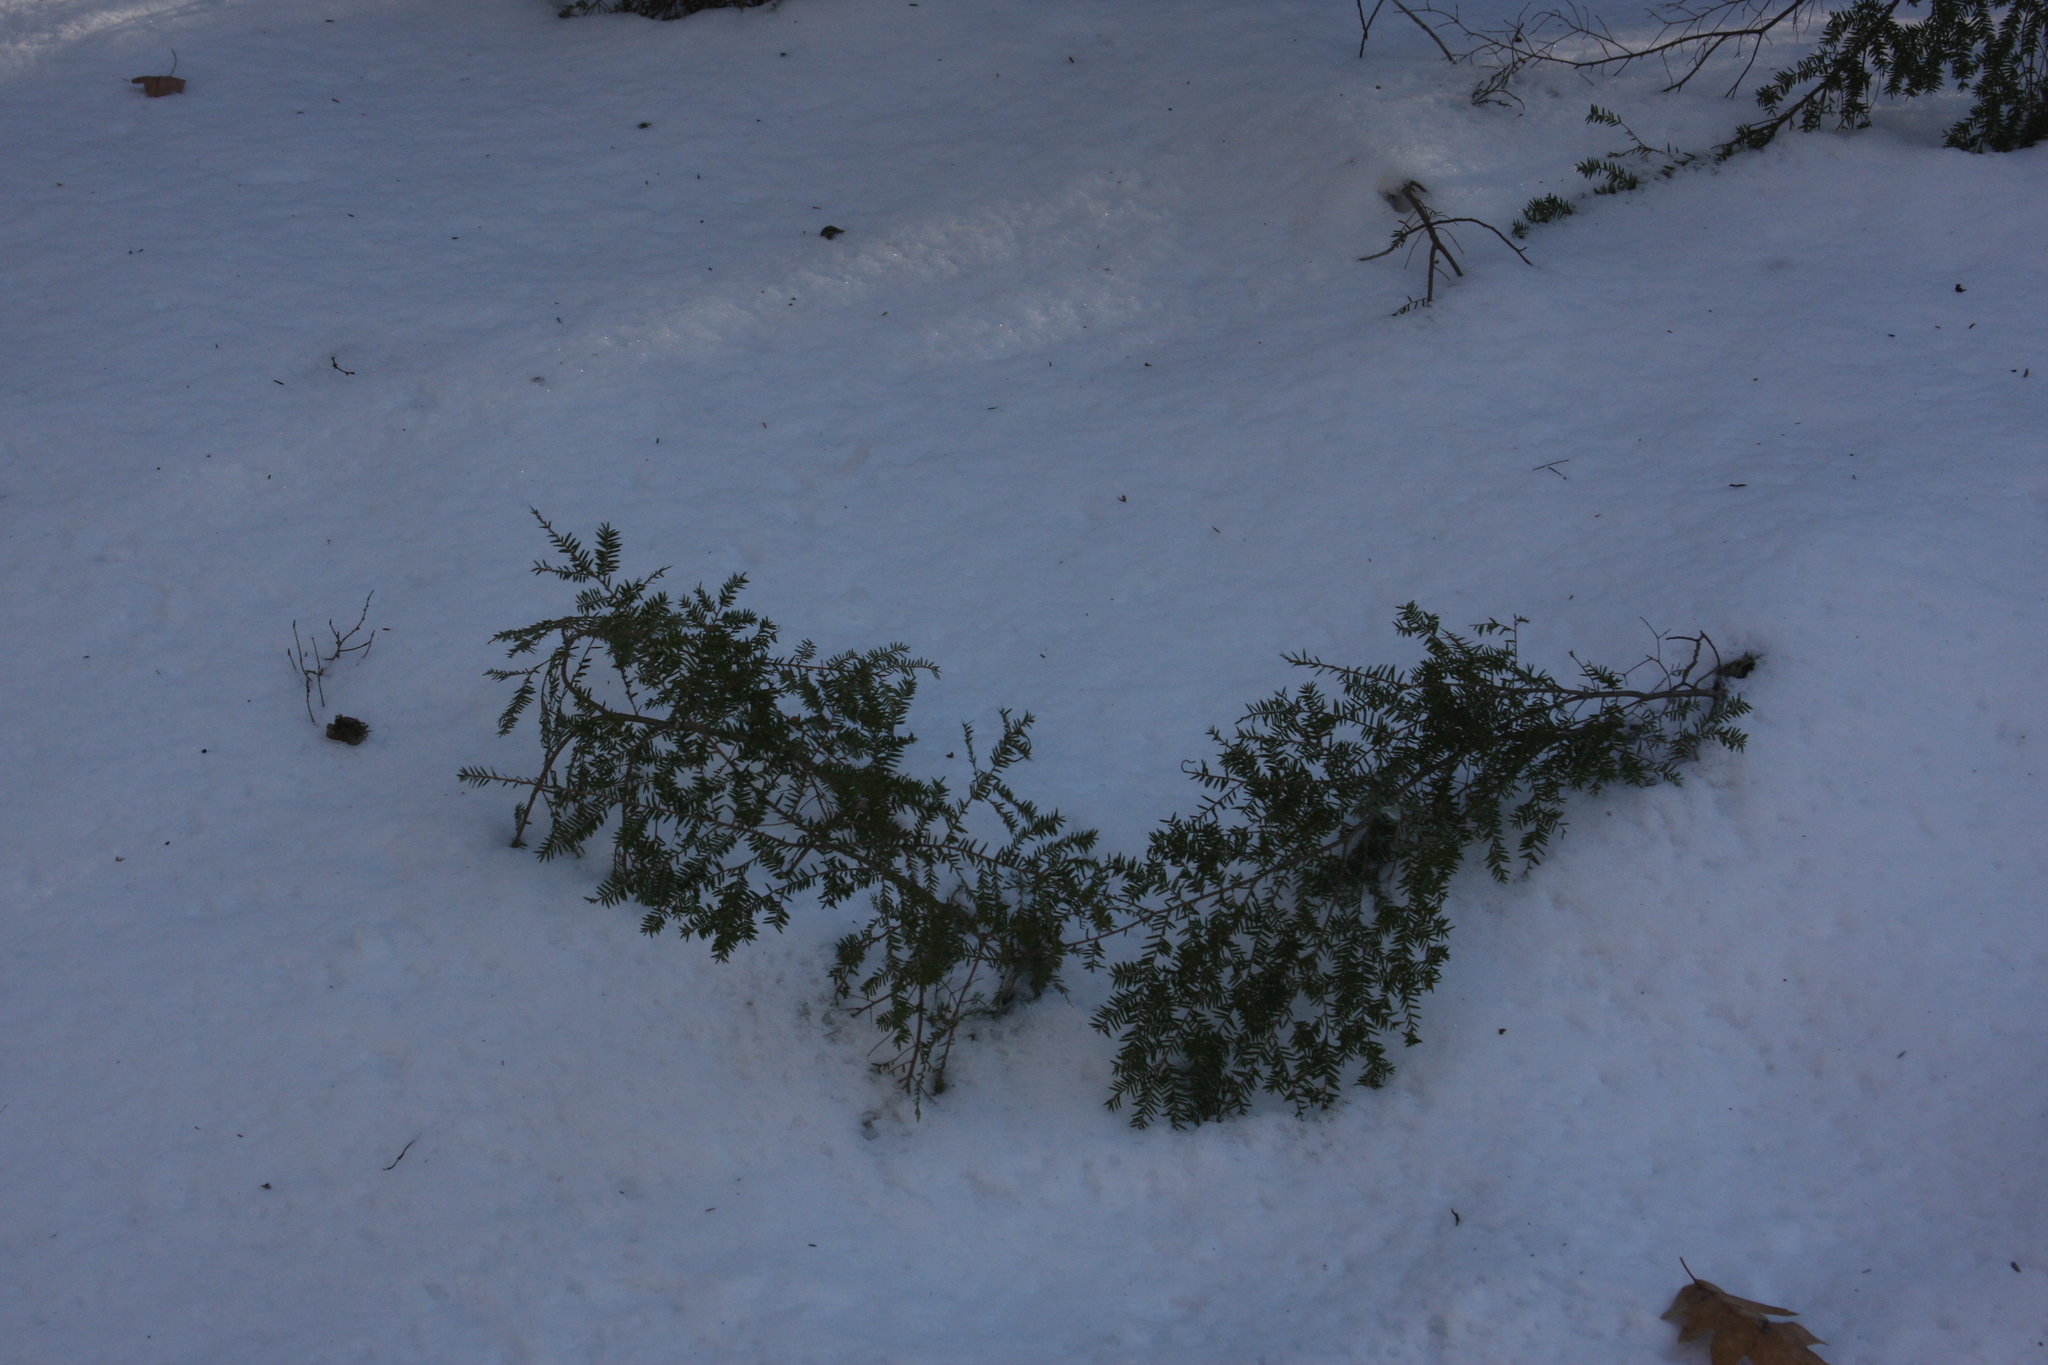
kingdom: Plantae
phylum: Tracheophyta
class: Pinopsida
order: Pinales
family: Pinaceae
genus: Tsuga
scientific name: Tsuga canadensis
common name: Eastern hemlock
